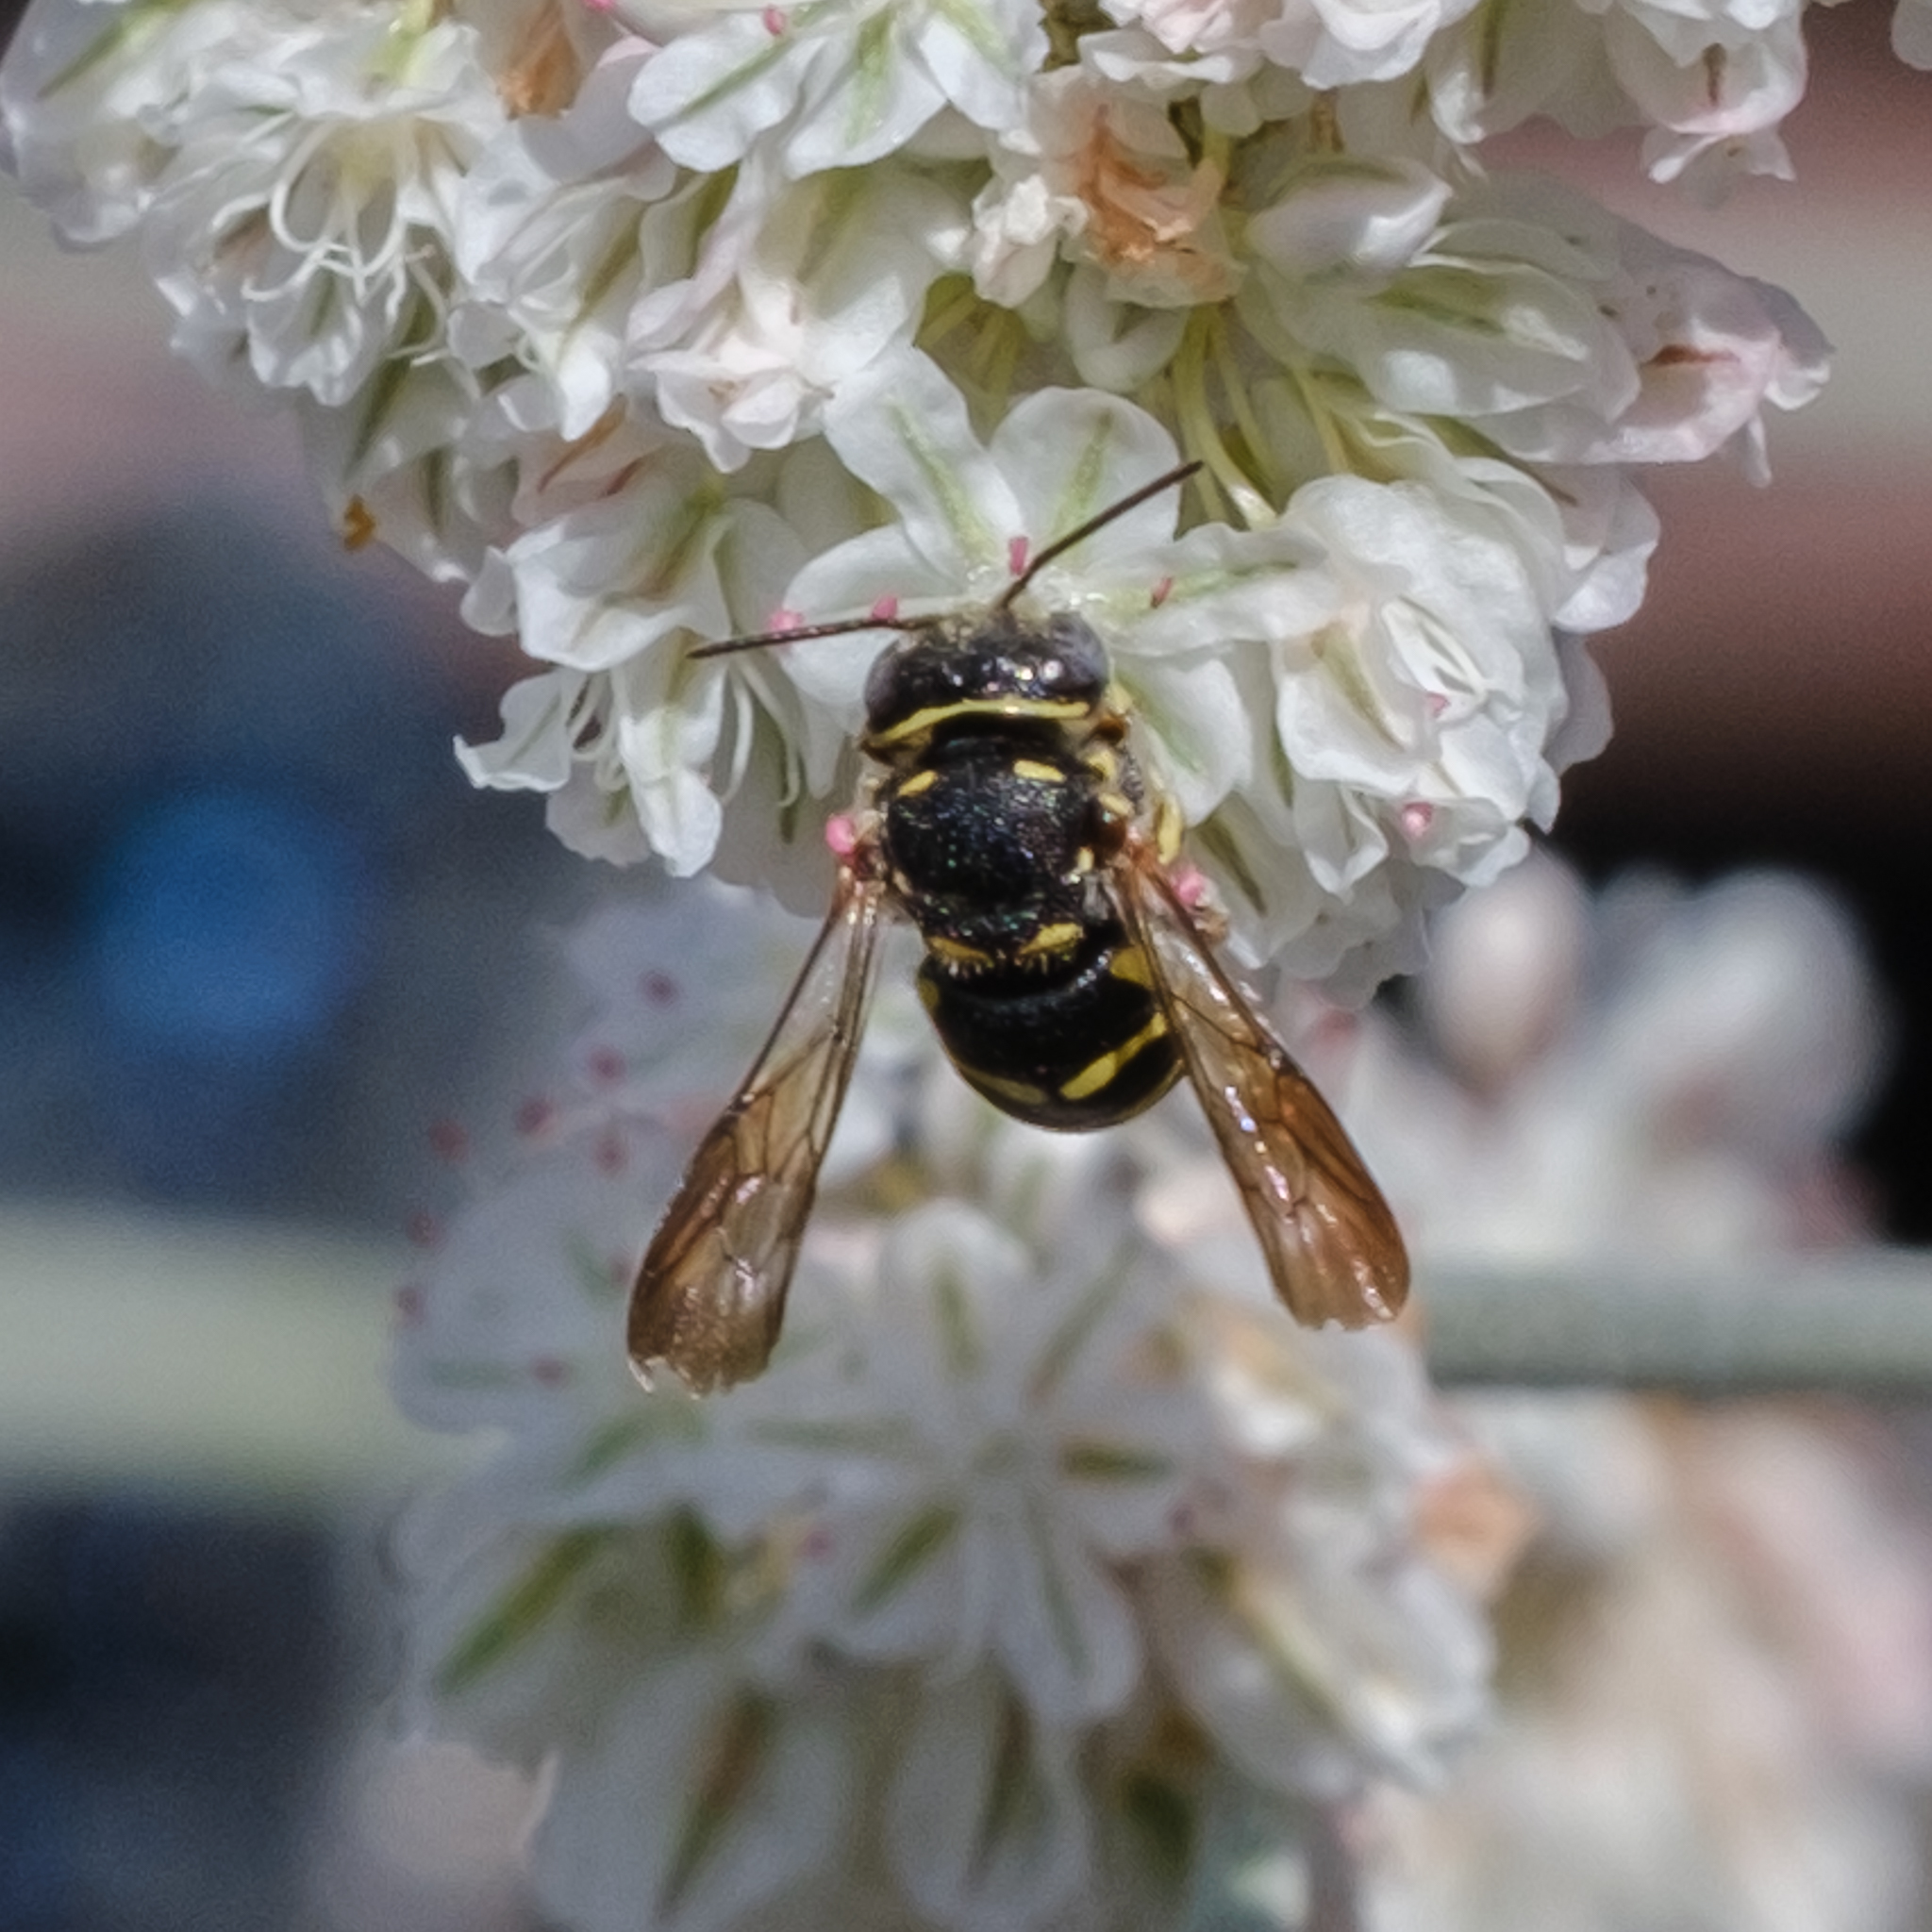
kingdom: Animalia
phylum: Arthropoda
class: Insecta
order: Hymenoptera
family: Megachilidae
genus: Anthidiellum
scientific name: Anthidiellum robertsoni
